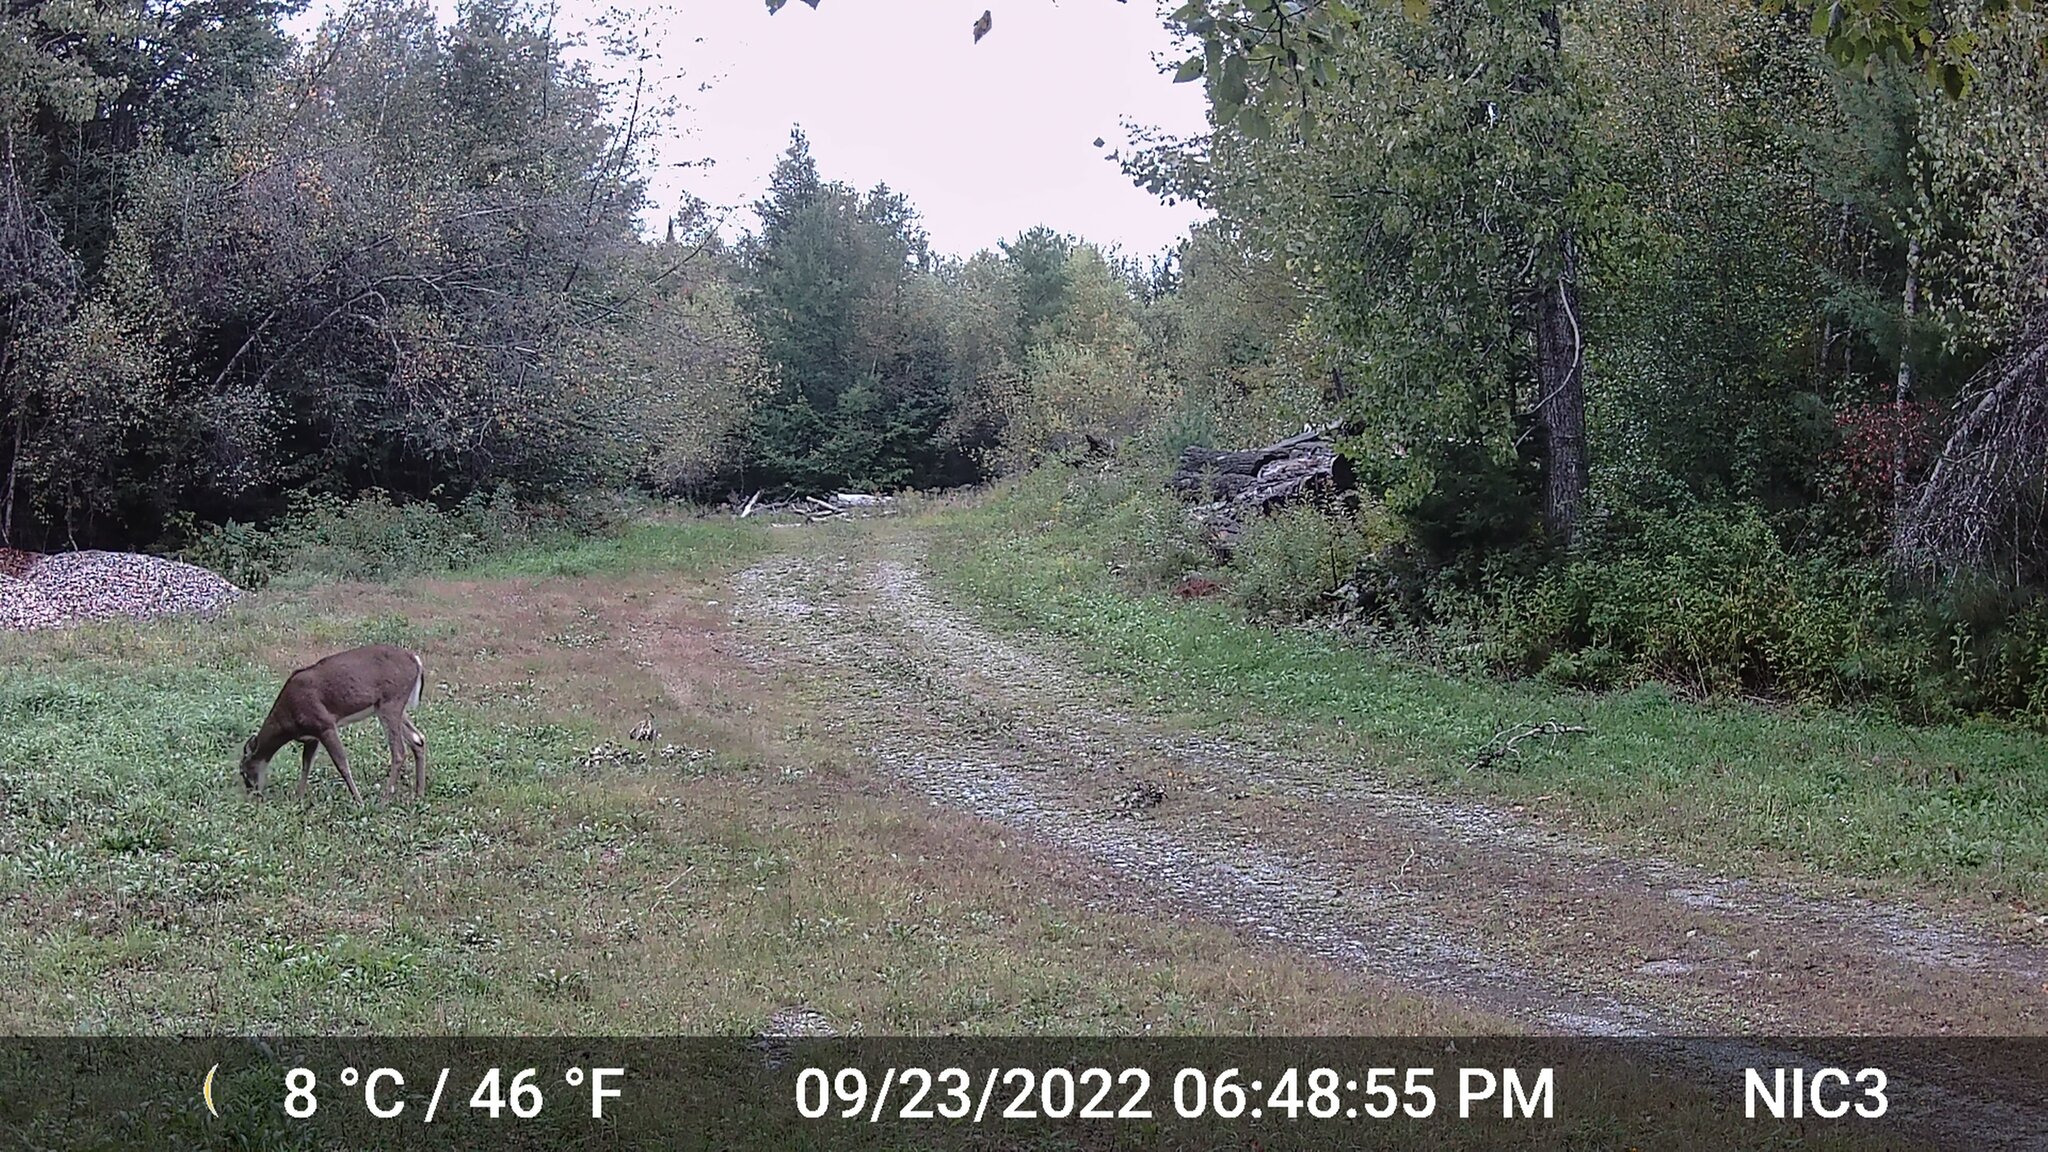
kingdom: Animalia
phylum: Chordata
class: Mammalia
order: Artiodactyla
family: Cervidae
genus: Odocoileus
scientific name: Odocoileus virginianus
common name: White-tailed deer
